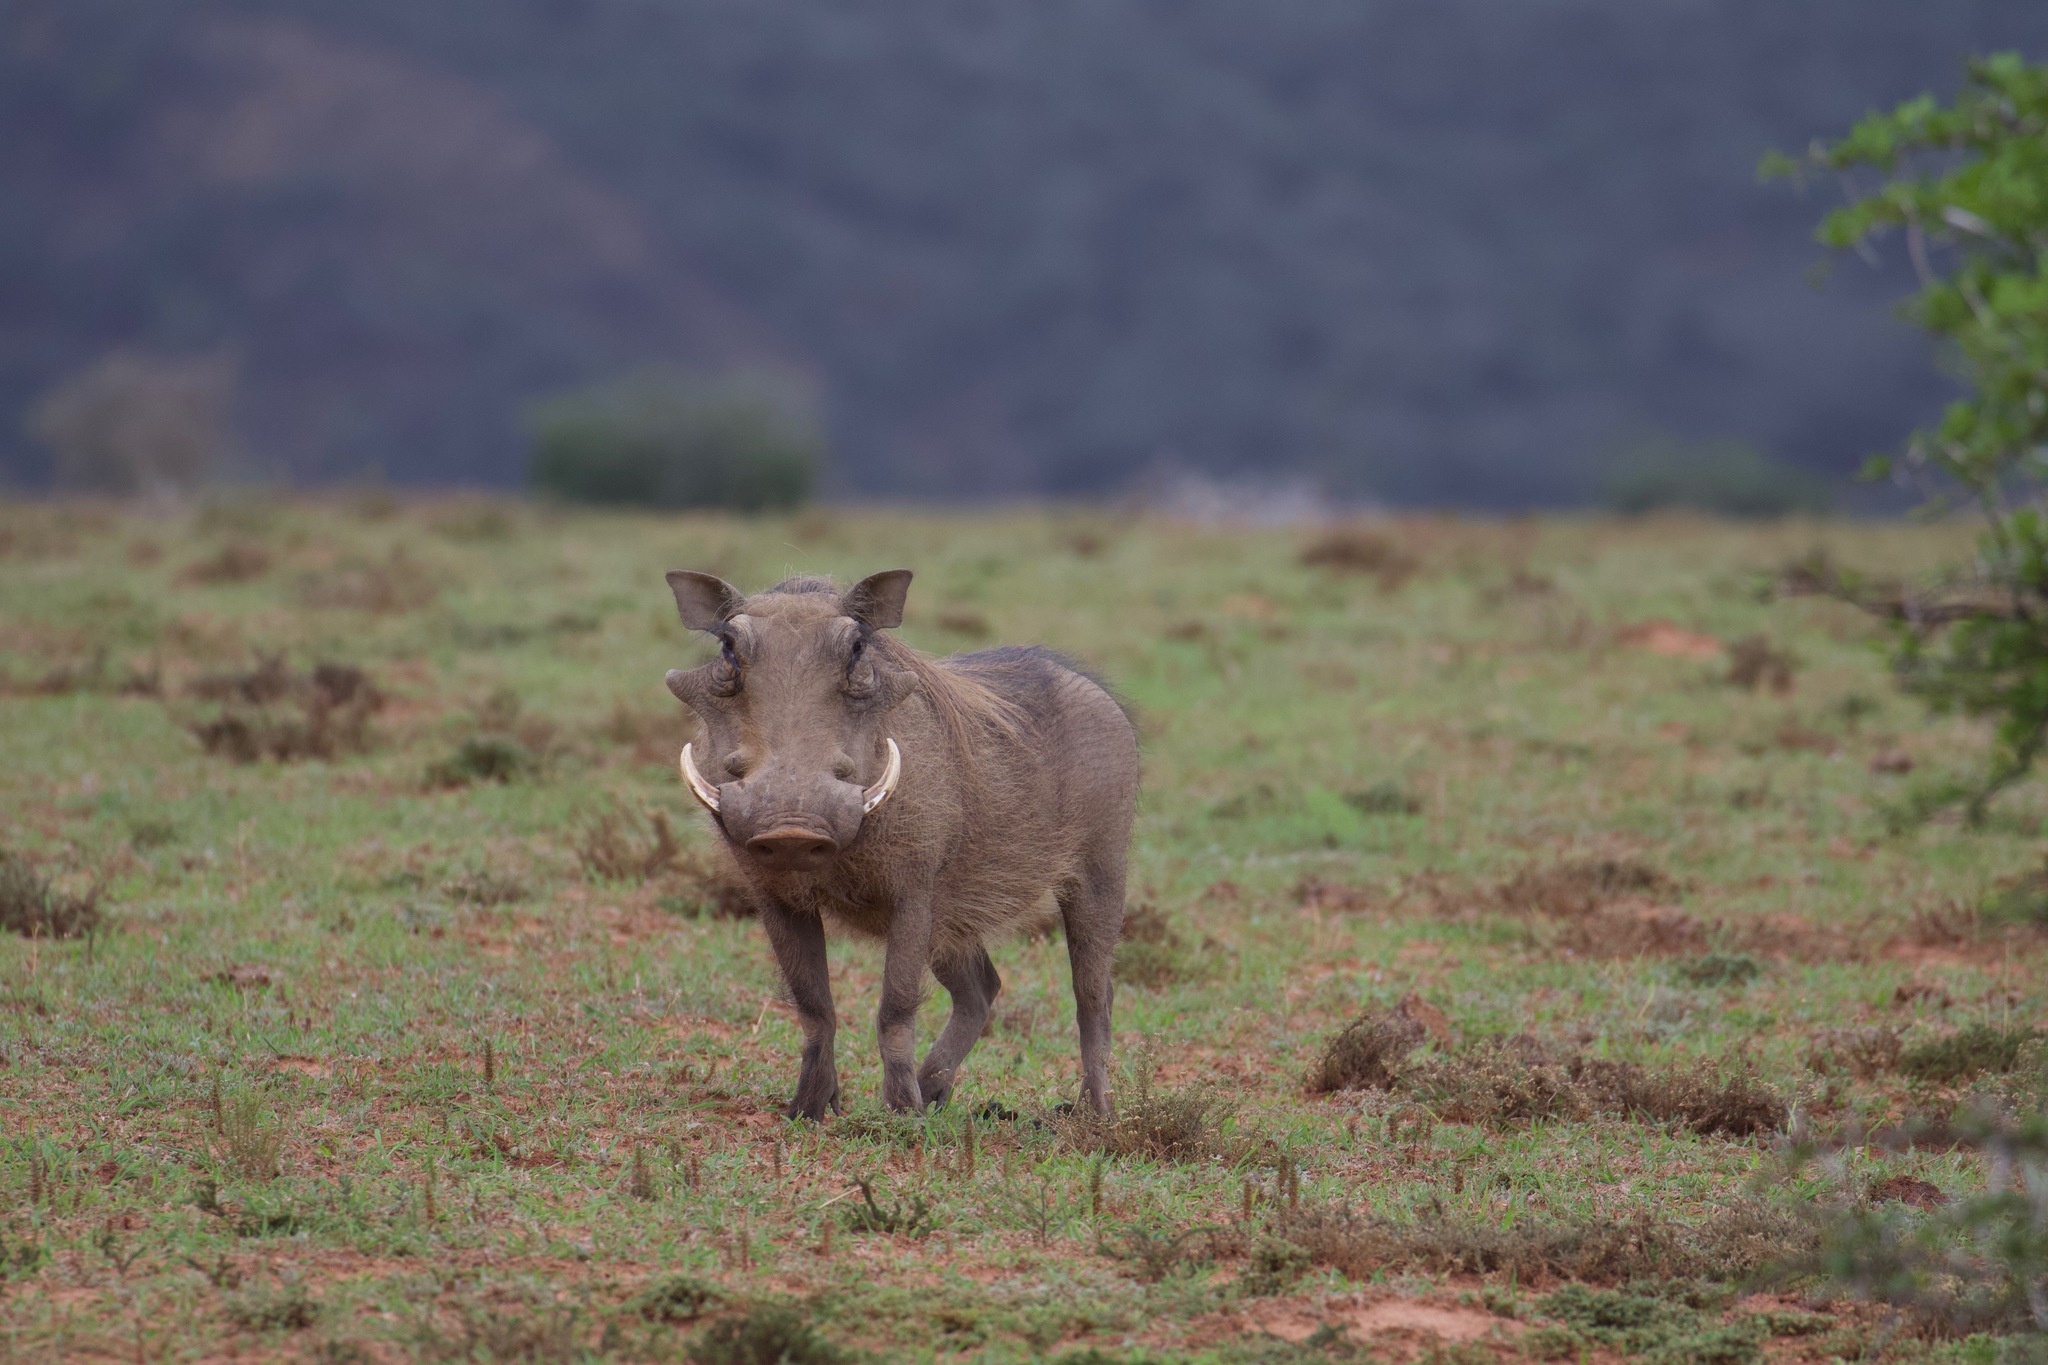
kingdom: Animalia
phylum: Chordata
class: Mammalia
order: Artiodactyla
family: Suidae
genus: Phacochoerus
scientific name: Phacochoerus africanus
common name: Common warthog
